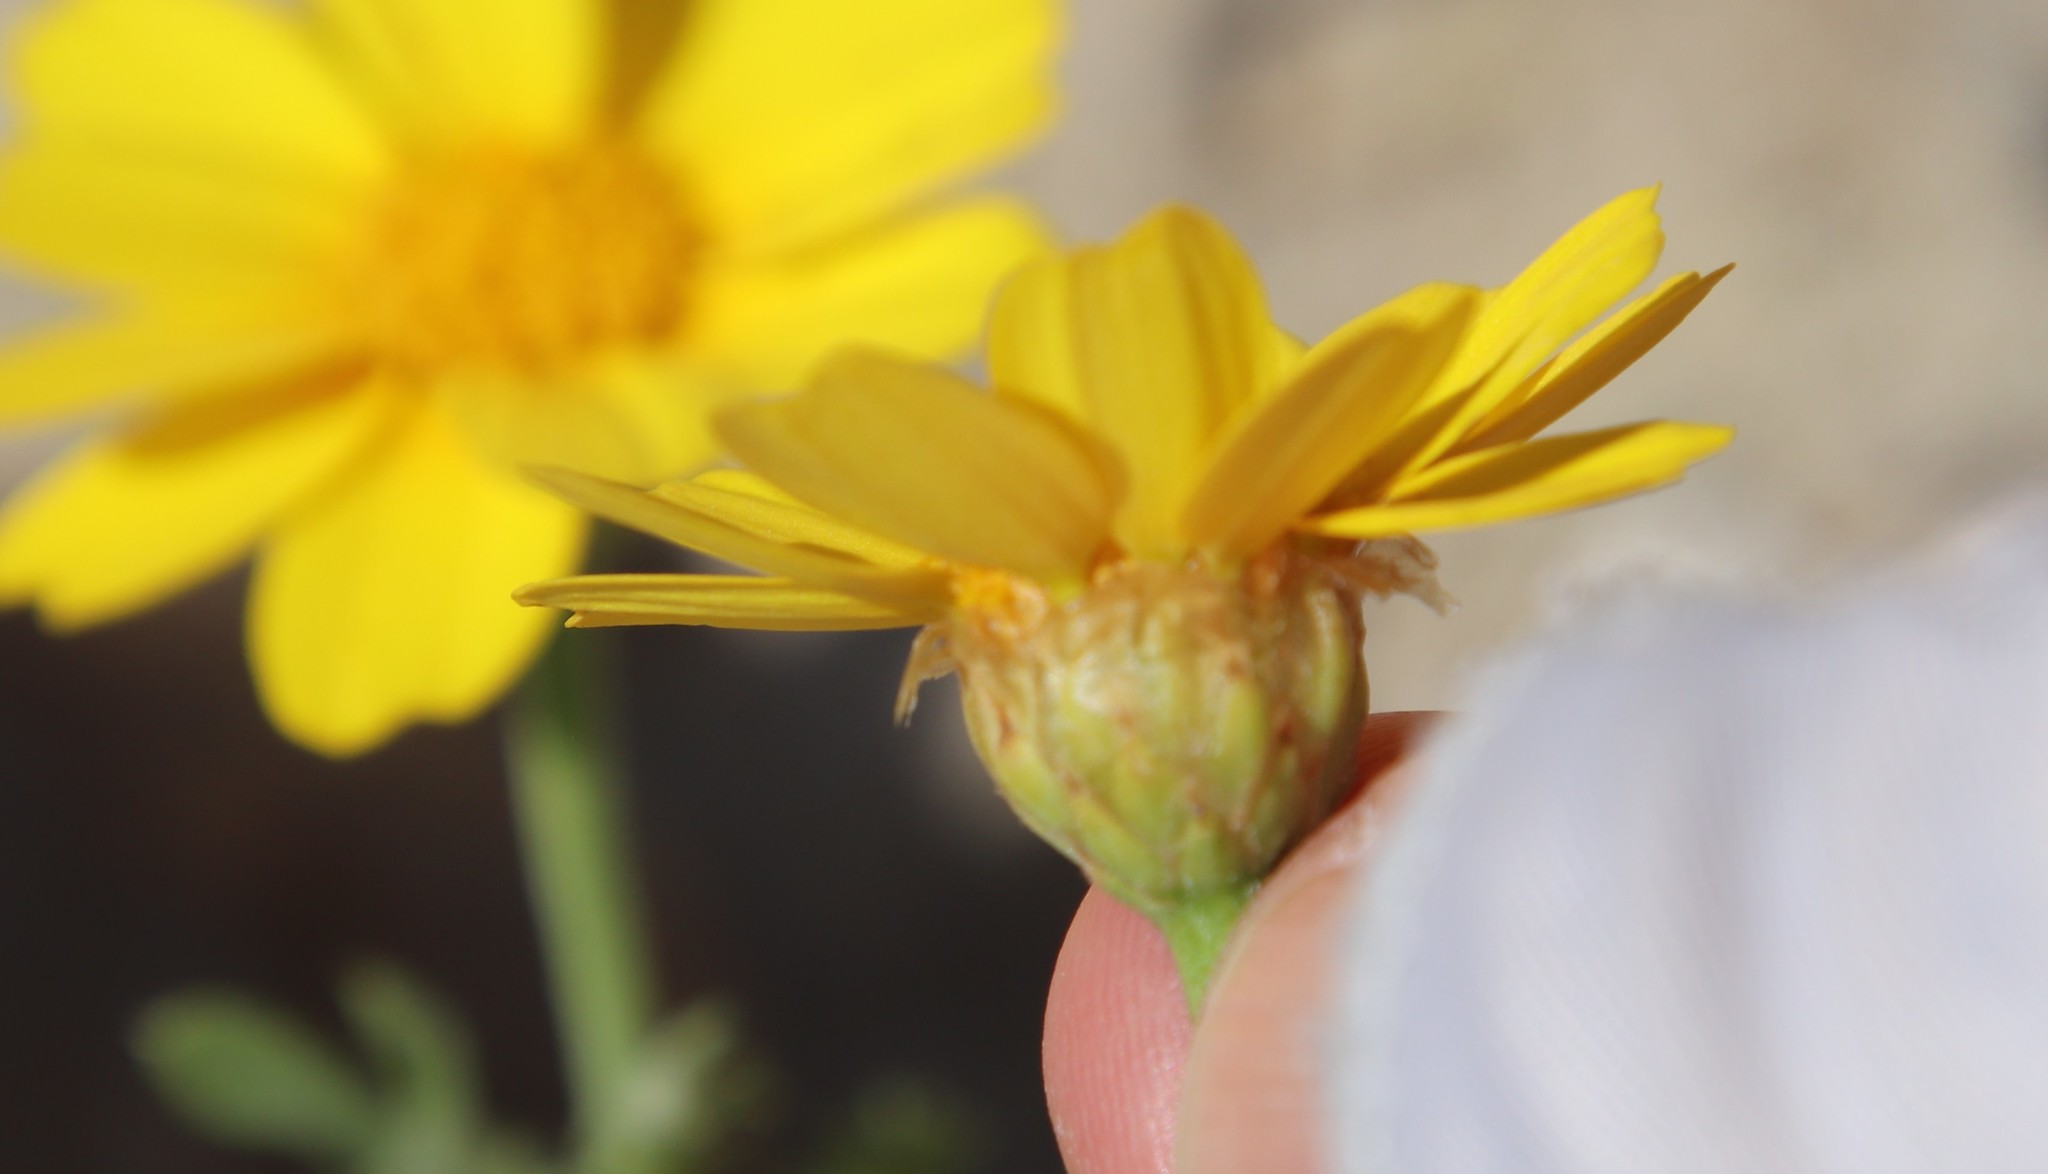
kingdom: Plantae
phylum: Tracheophyta
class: Magnoliopsida
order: Asterales
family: Asteraceae
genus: Glebionis
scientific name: Glebionis coronaria
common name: Crowndaisy
